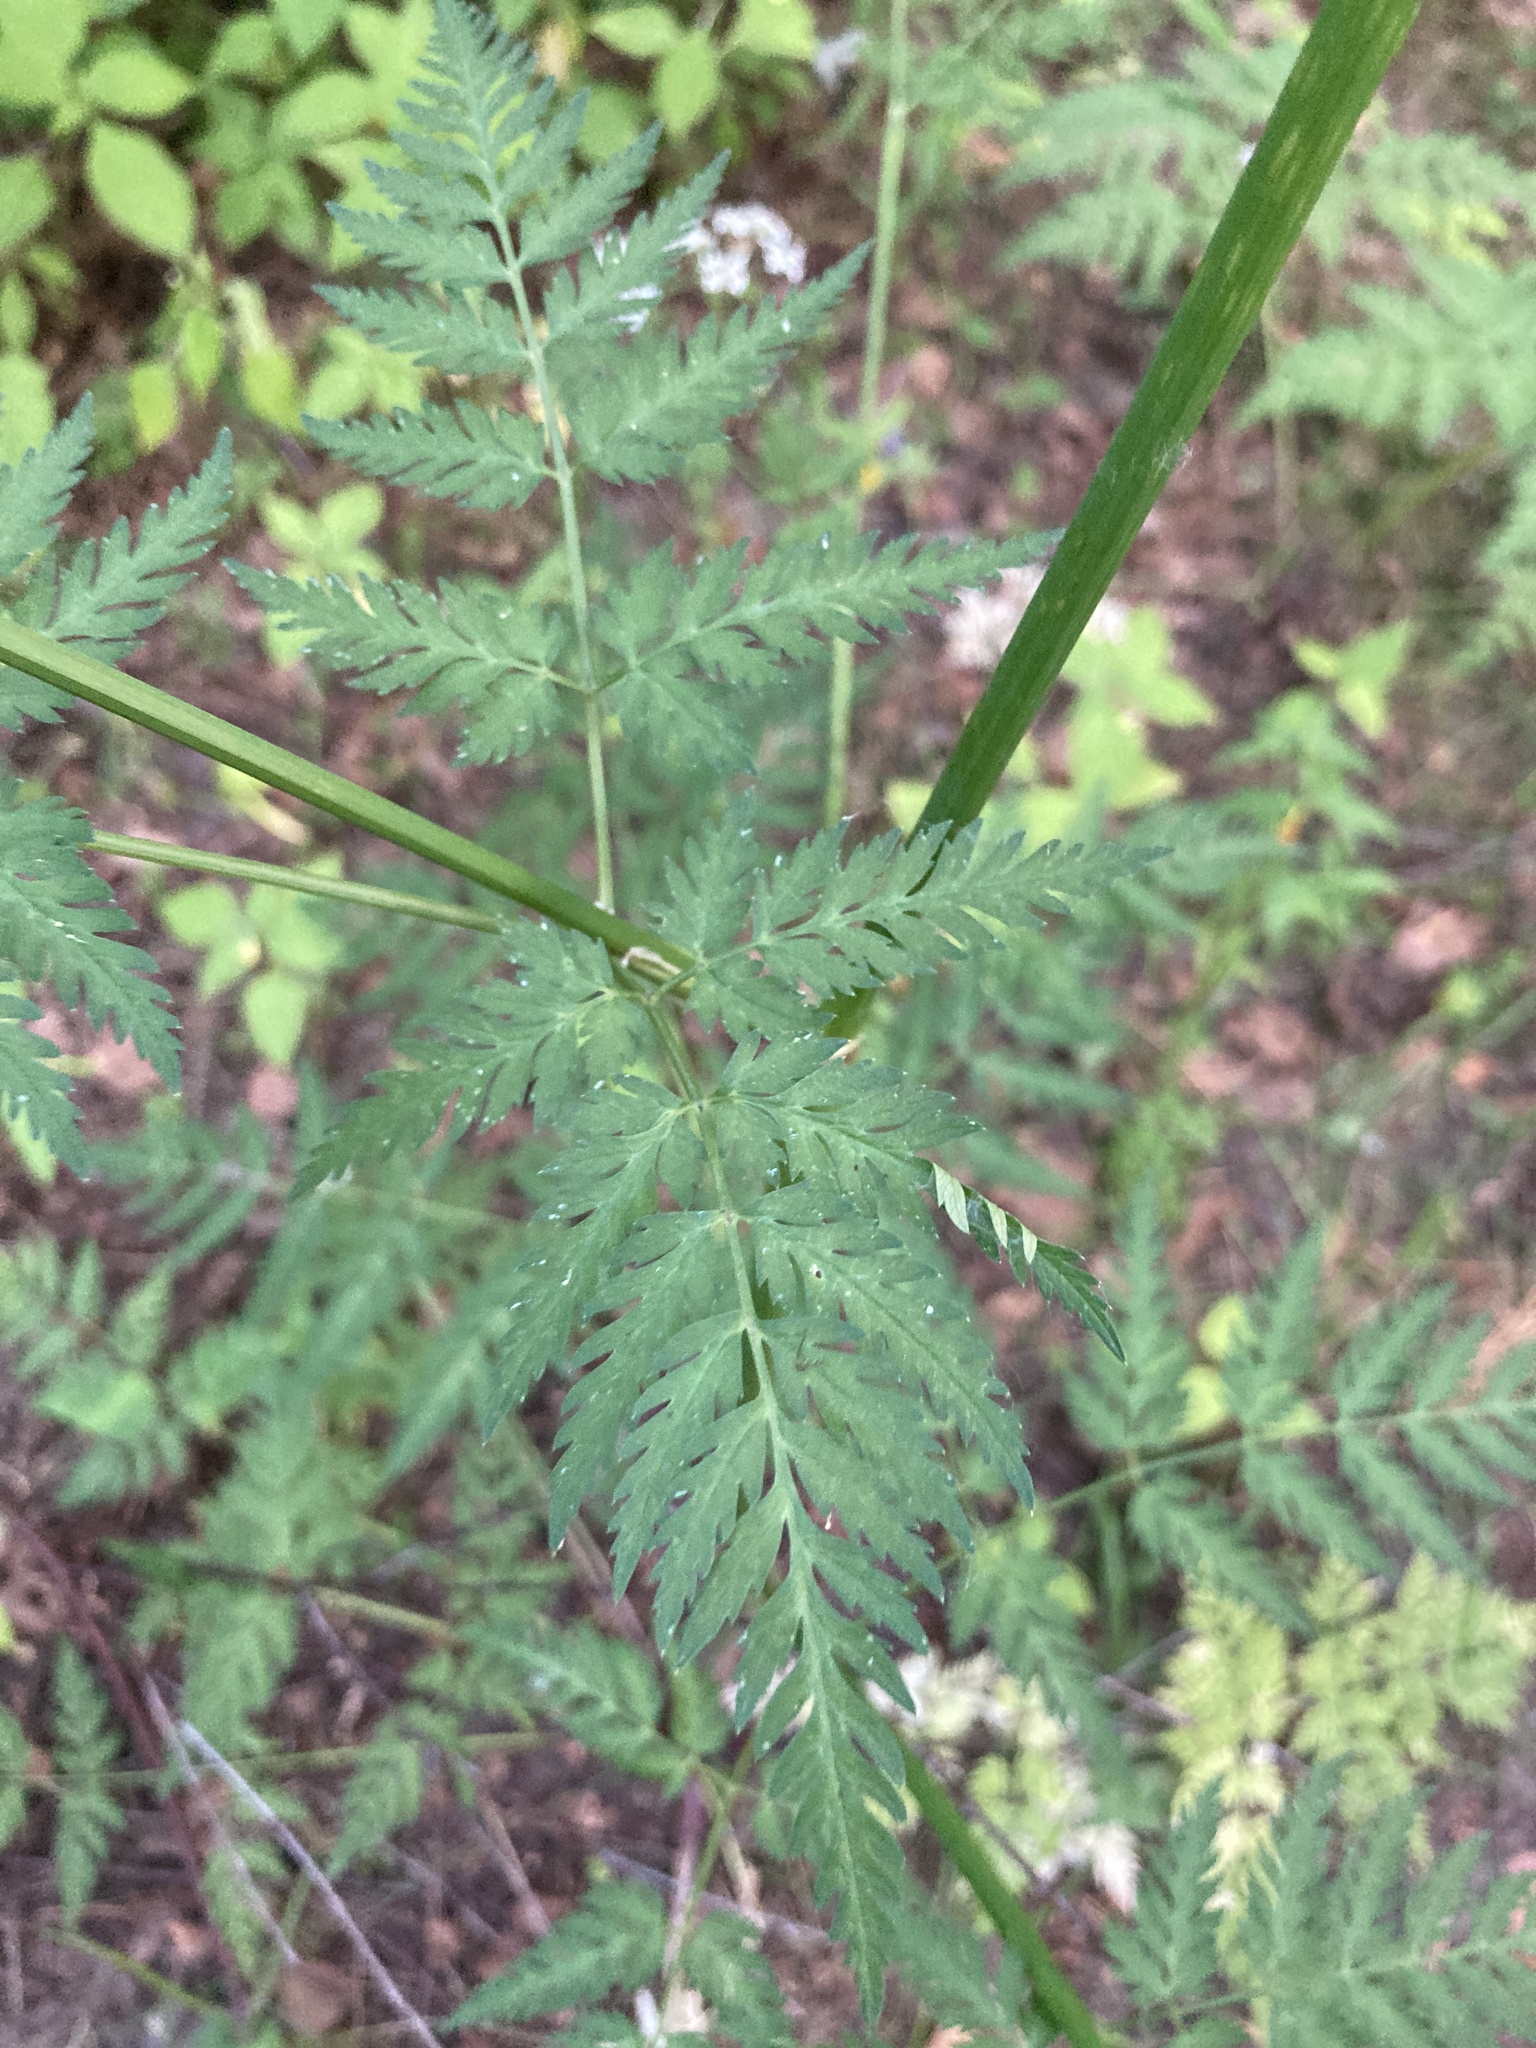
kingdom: Plantae
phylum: Tracheophyta
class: Magnoliopsida
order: Apiales
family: Apiaceae
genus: Anthriscus
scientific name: Anthriscus sylvestris
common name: Cow parsley
